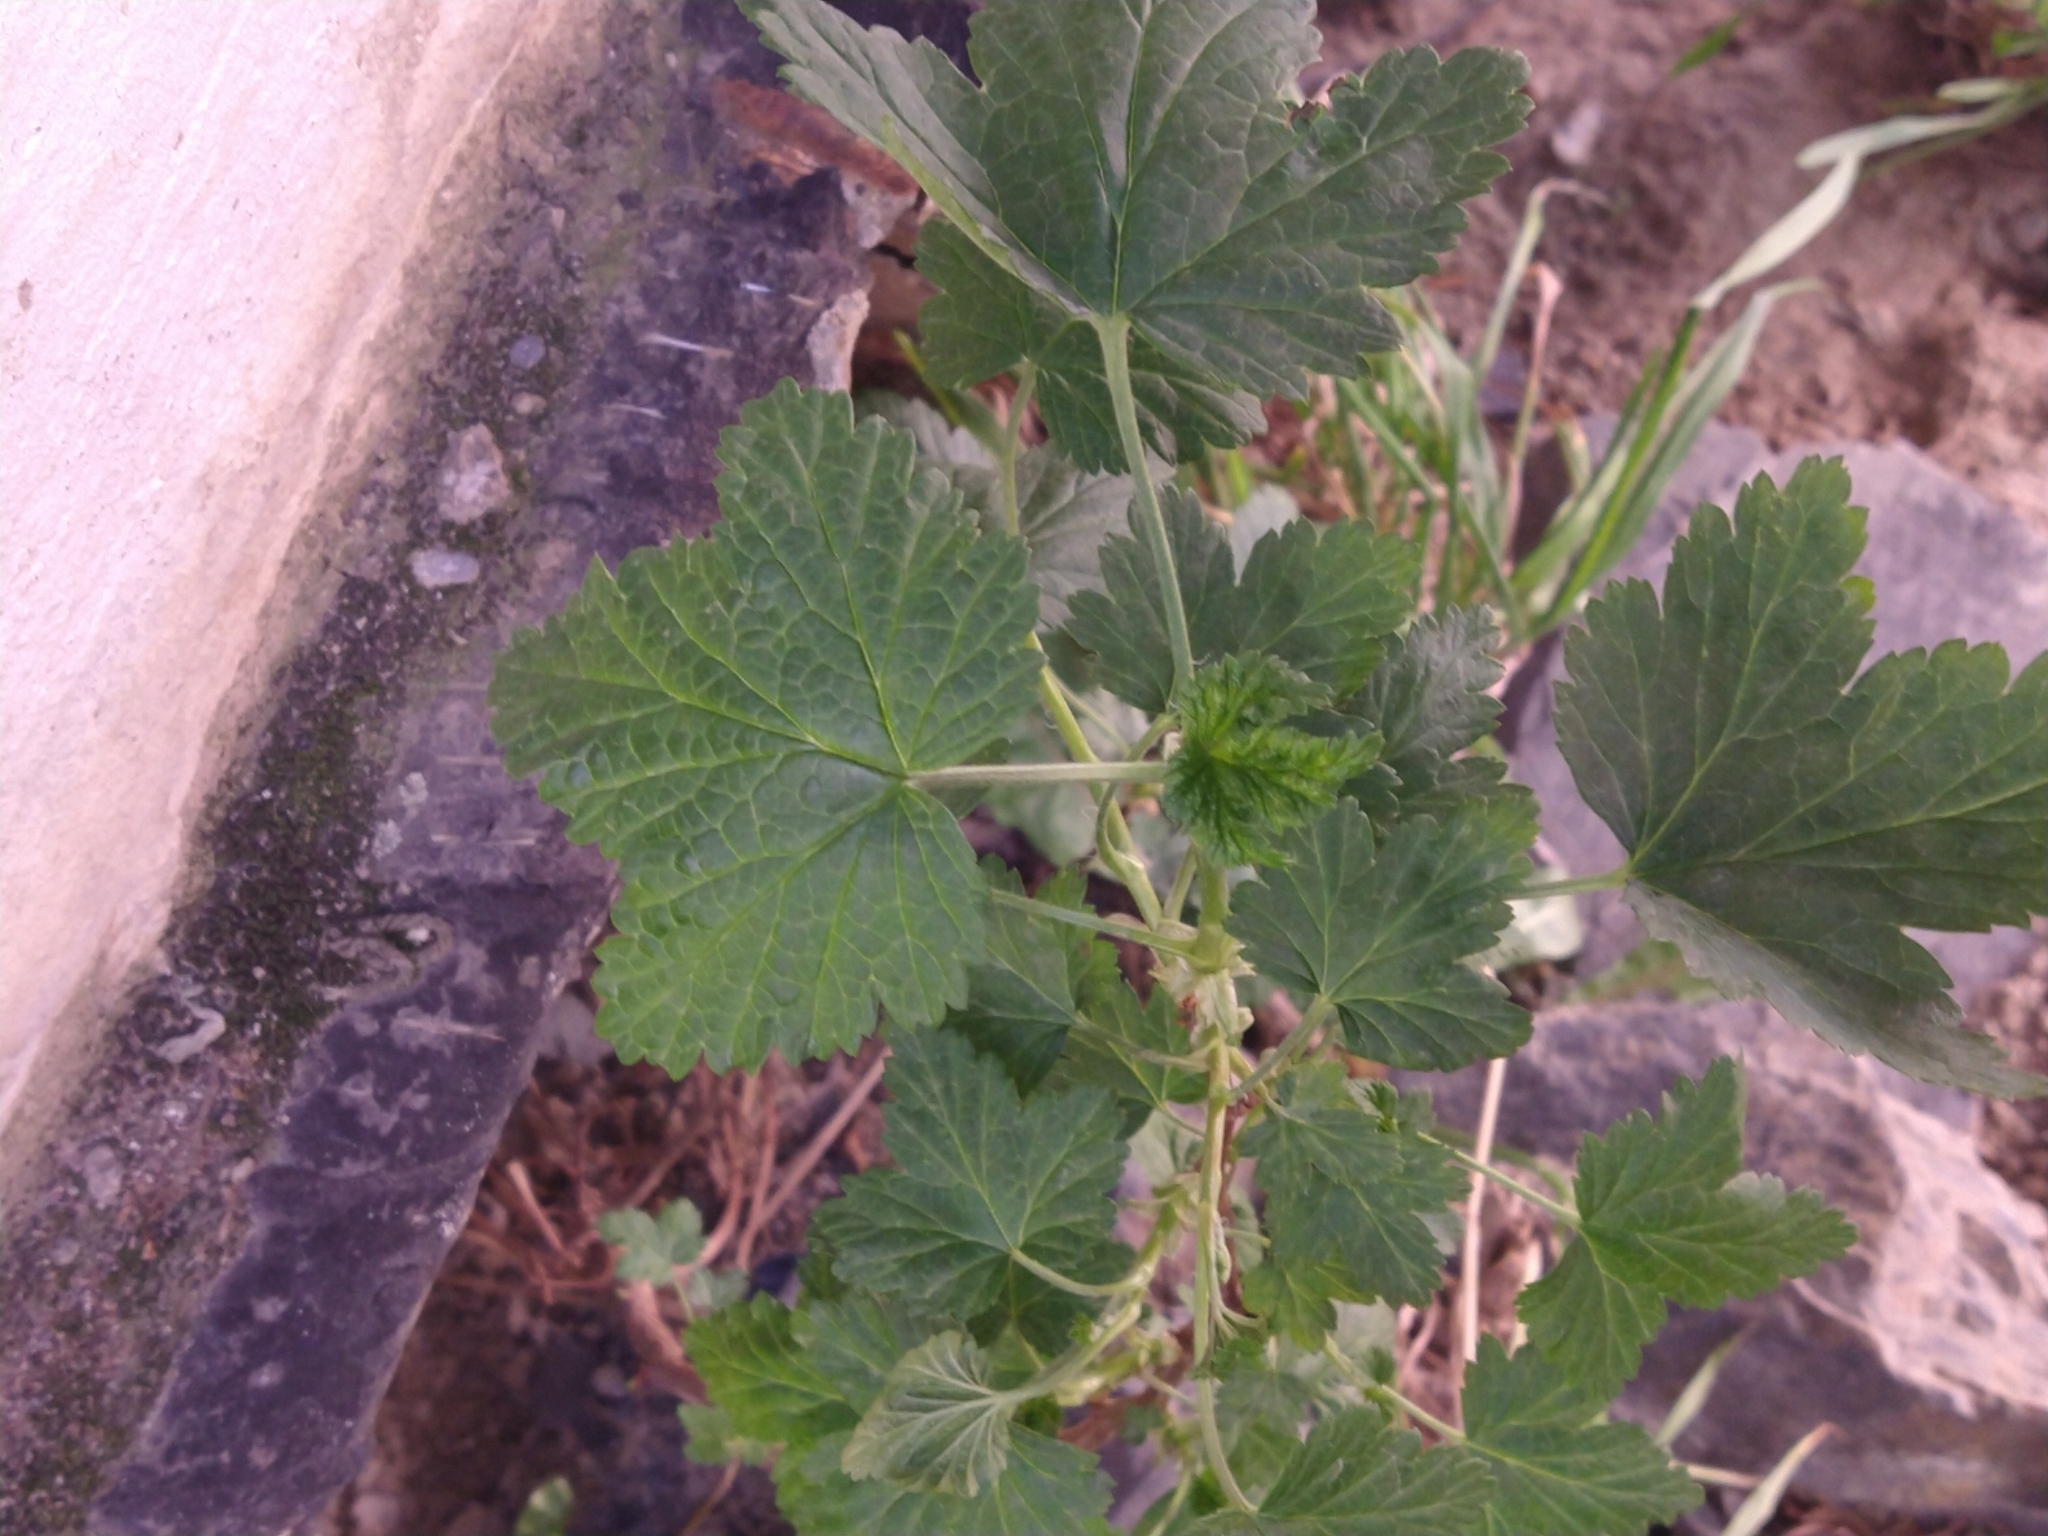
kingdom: Plantae
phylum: Tracheophyta
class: Magnoliopsida
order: Saxifragales
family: Grossulariaceae
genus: Ribes
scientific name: Ribes magellanicum
